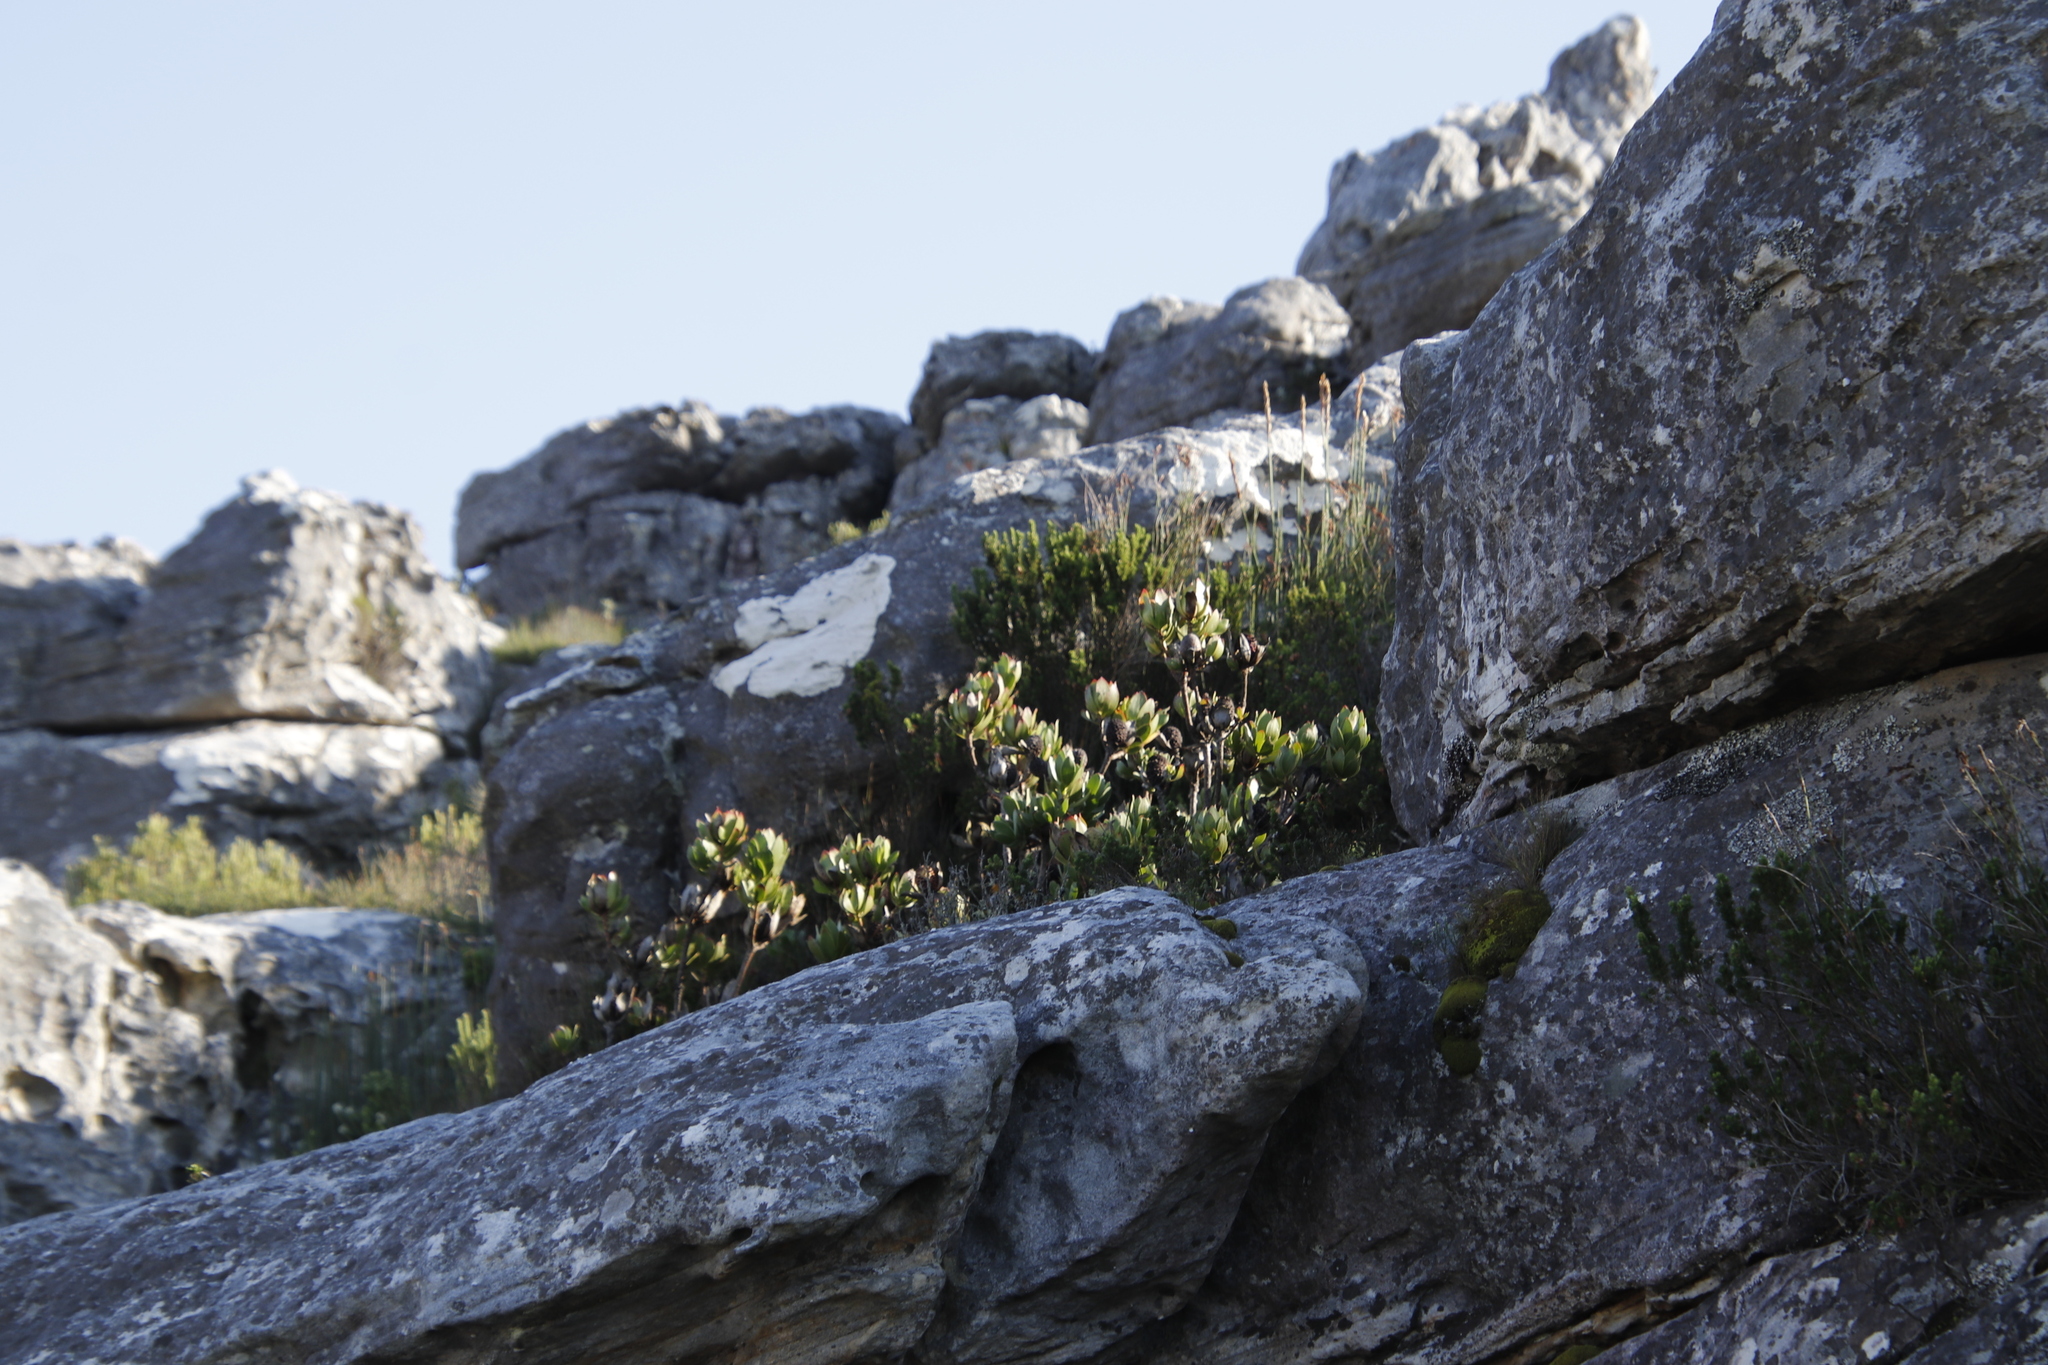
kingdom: Plantae
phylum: Tracheophyta
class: Magnoliopsida
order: Proteales
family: Proteaceae
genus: Leucadendron
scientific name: Leucadendron strobilinum
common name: Mountain rose
